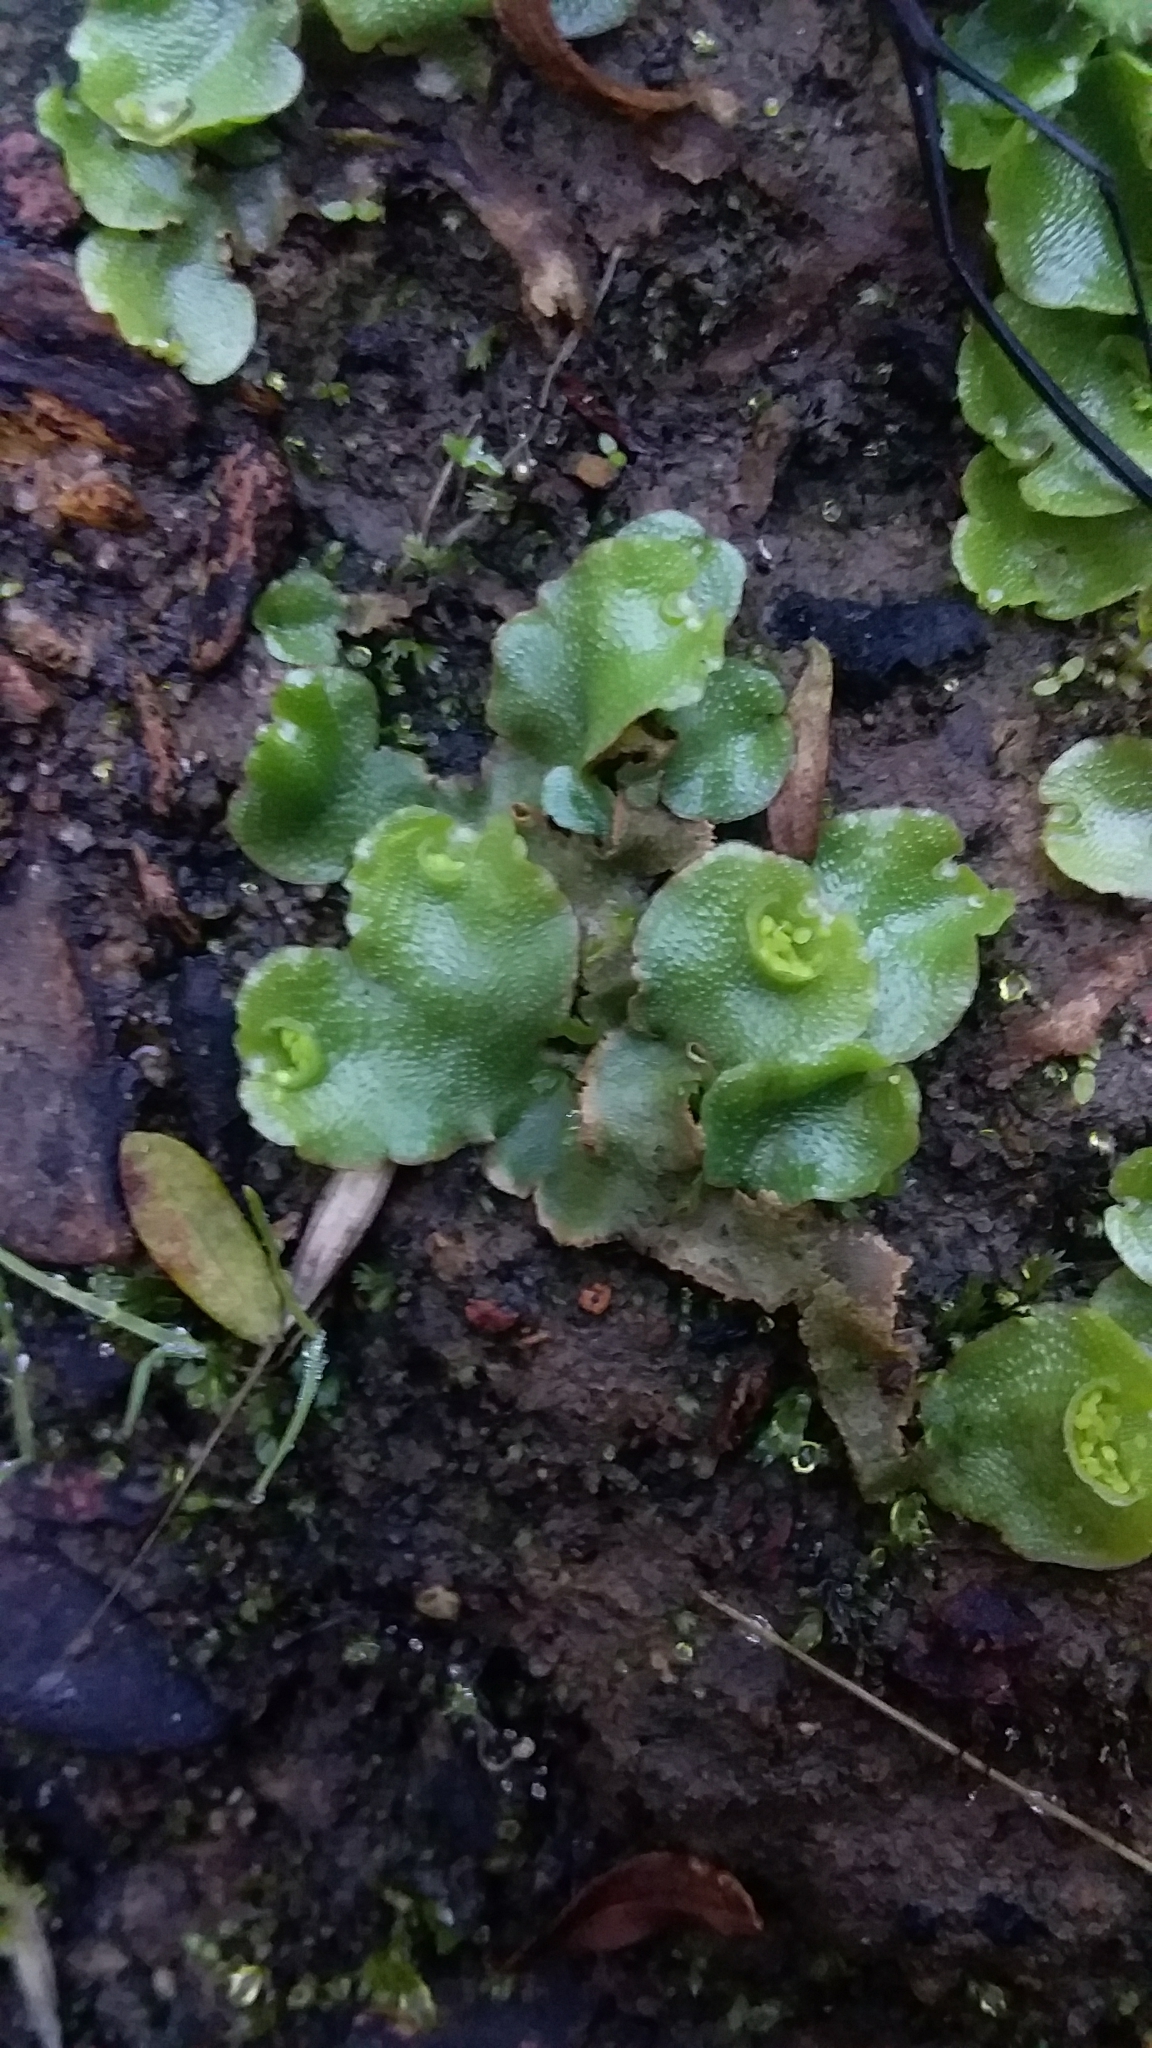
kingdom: Plantae
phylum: Marchantiophyta
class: Marchantiopsida
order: Lunulariales
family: Lunulariaceae
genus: Lunularia
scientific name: Lunularia cruciata
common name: Crescent-cup liverwort
